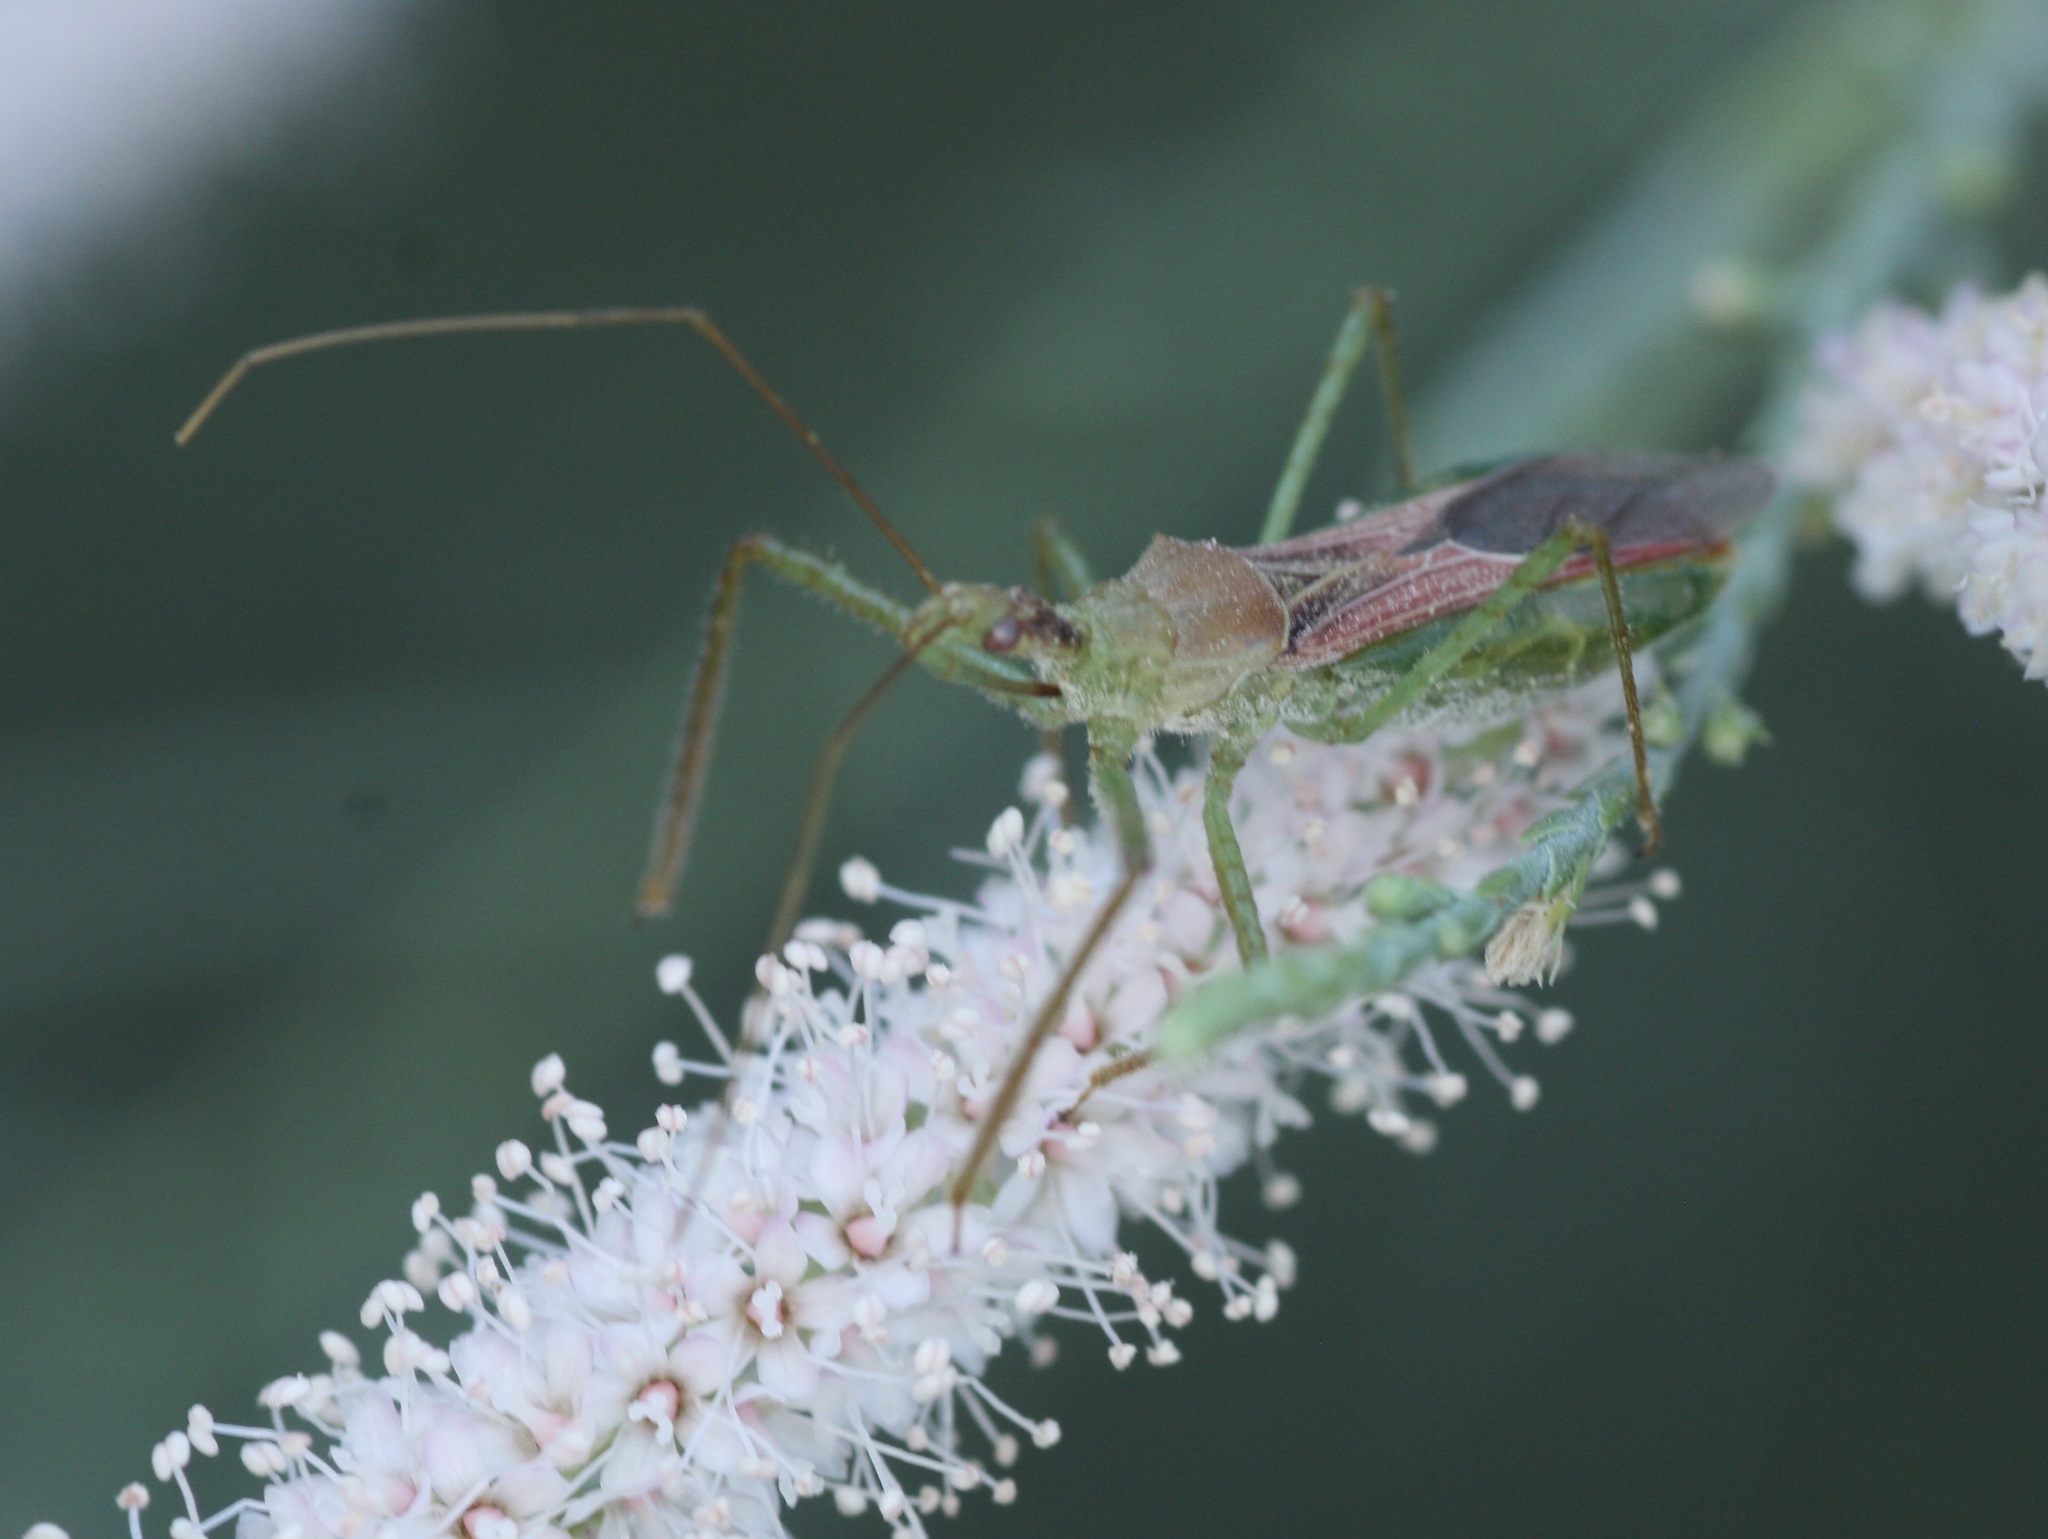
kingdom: Animalia
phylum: Arthropoda
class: Insecta
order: Hemiptera
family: Reduviidae
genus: Zelus
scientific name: Zelus renardii
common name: Assassin bug
